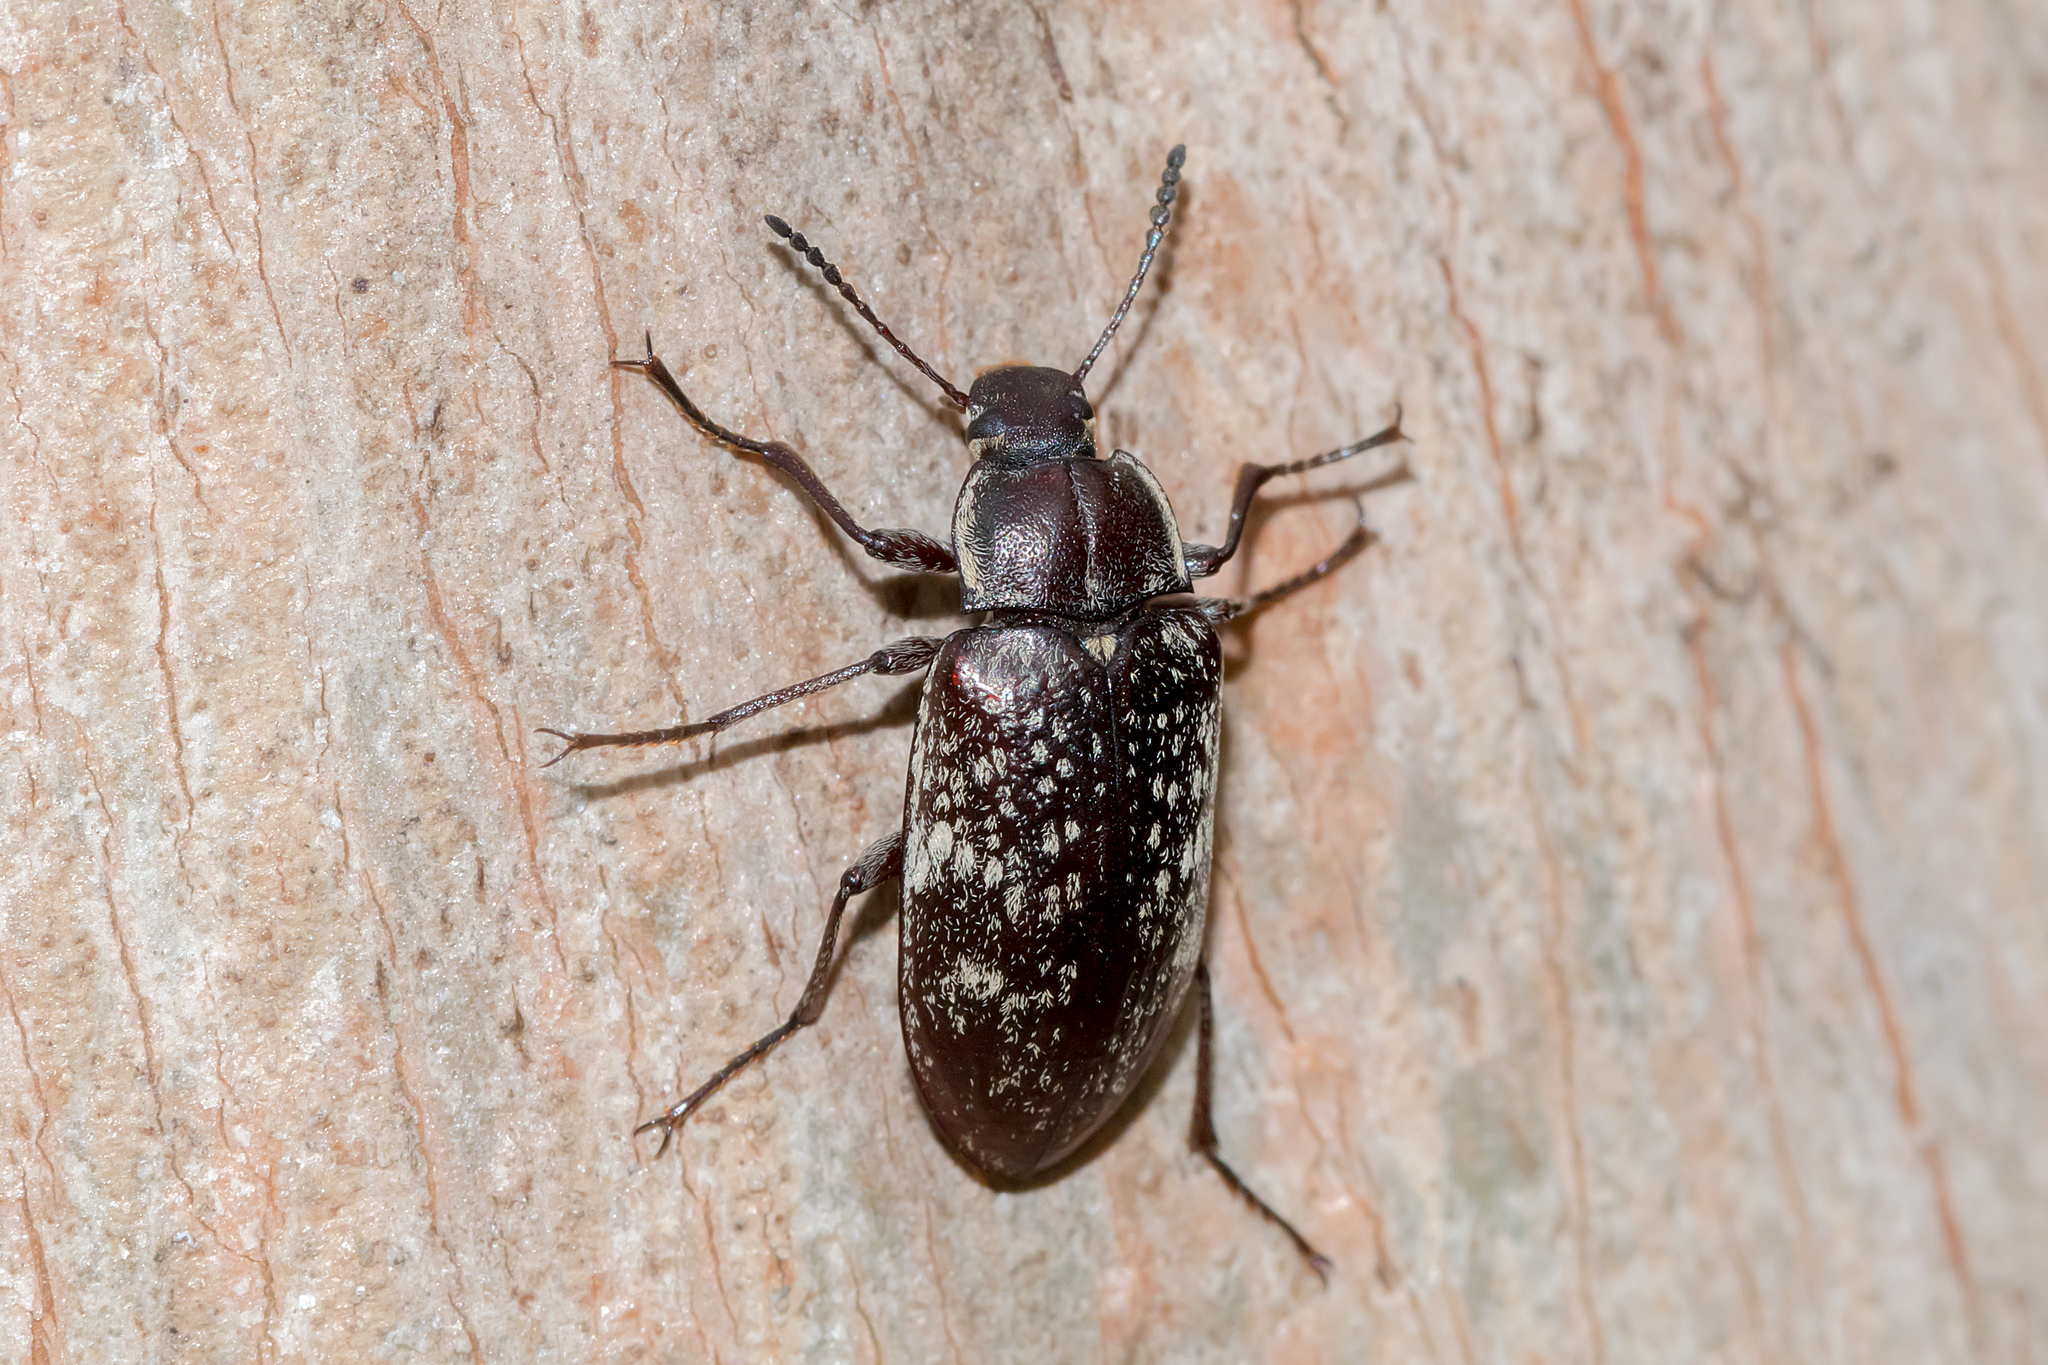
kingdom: Animalia
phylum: Arthropoda
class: Insecta
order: Coleoptera
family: Tenebrionidae
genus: Pachycoelia
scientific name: Pachycoelia
